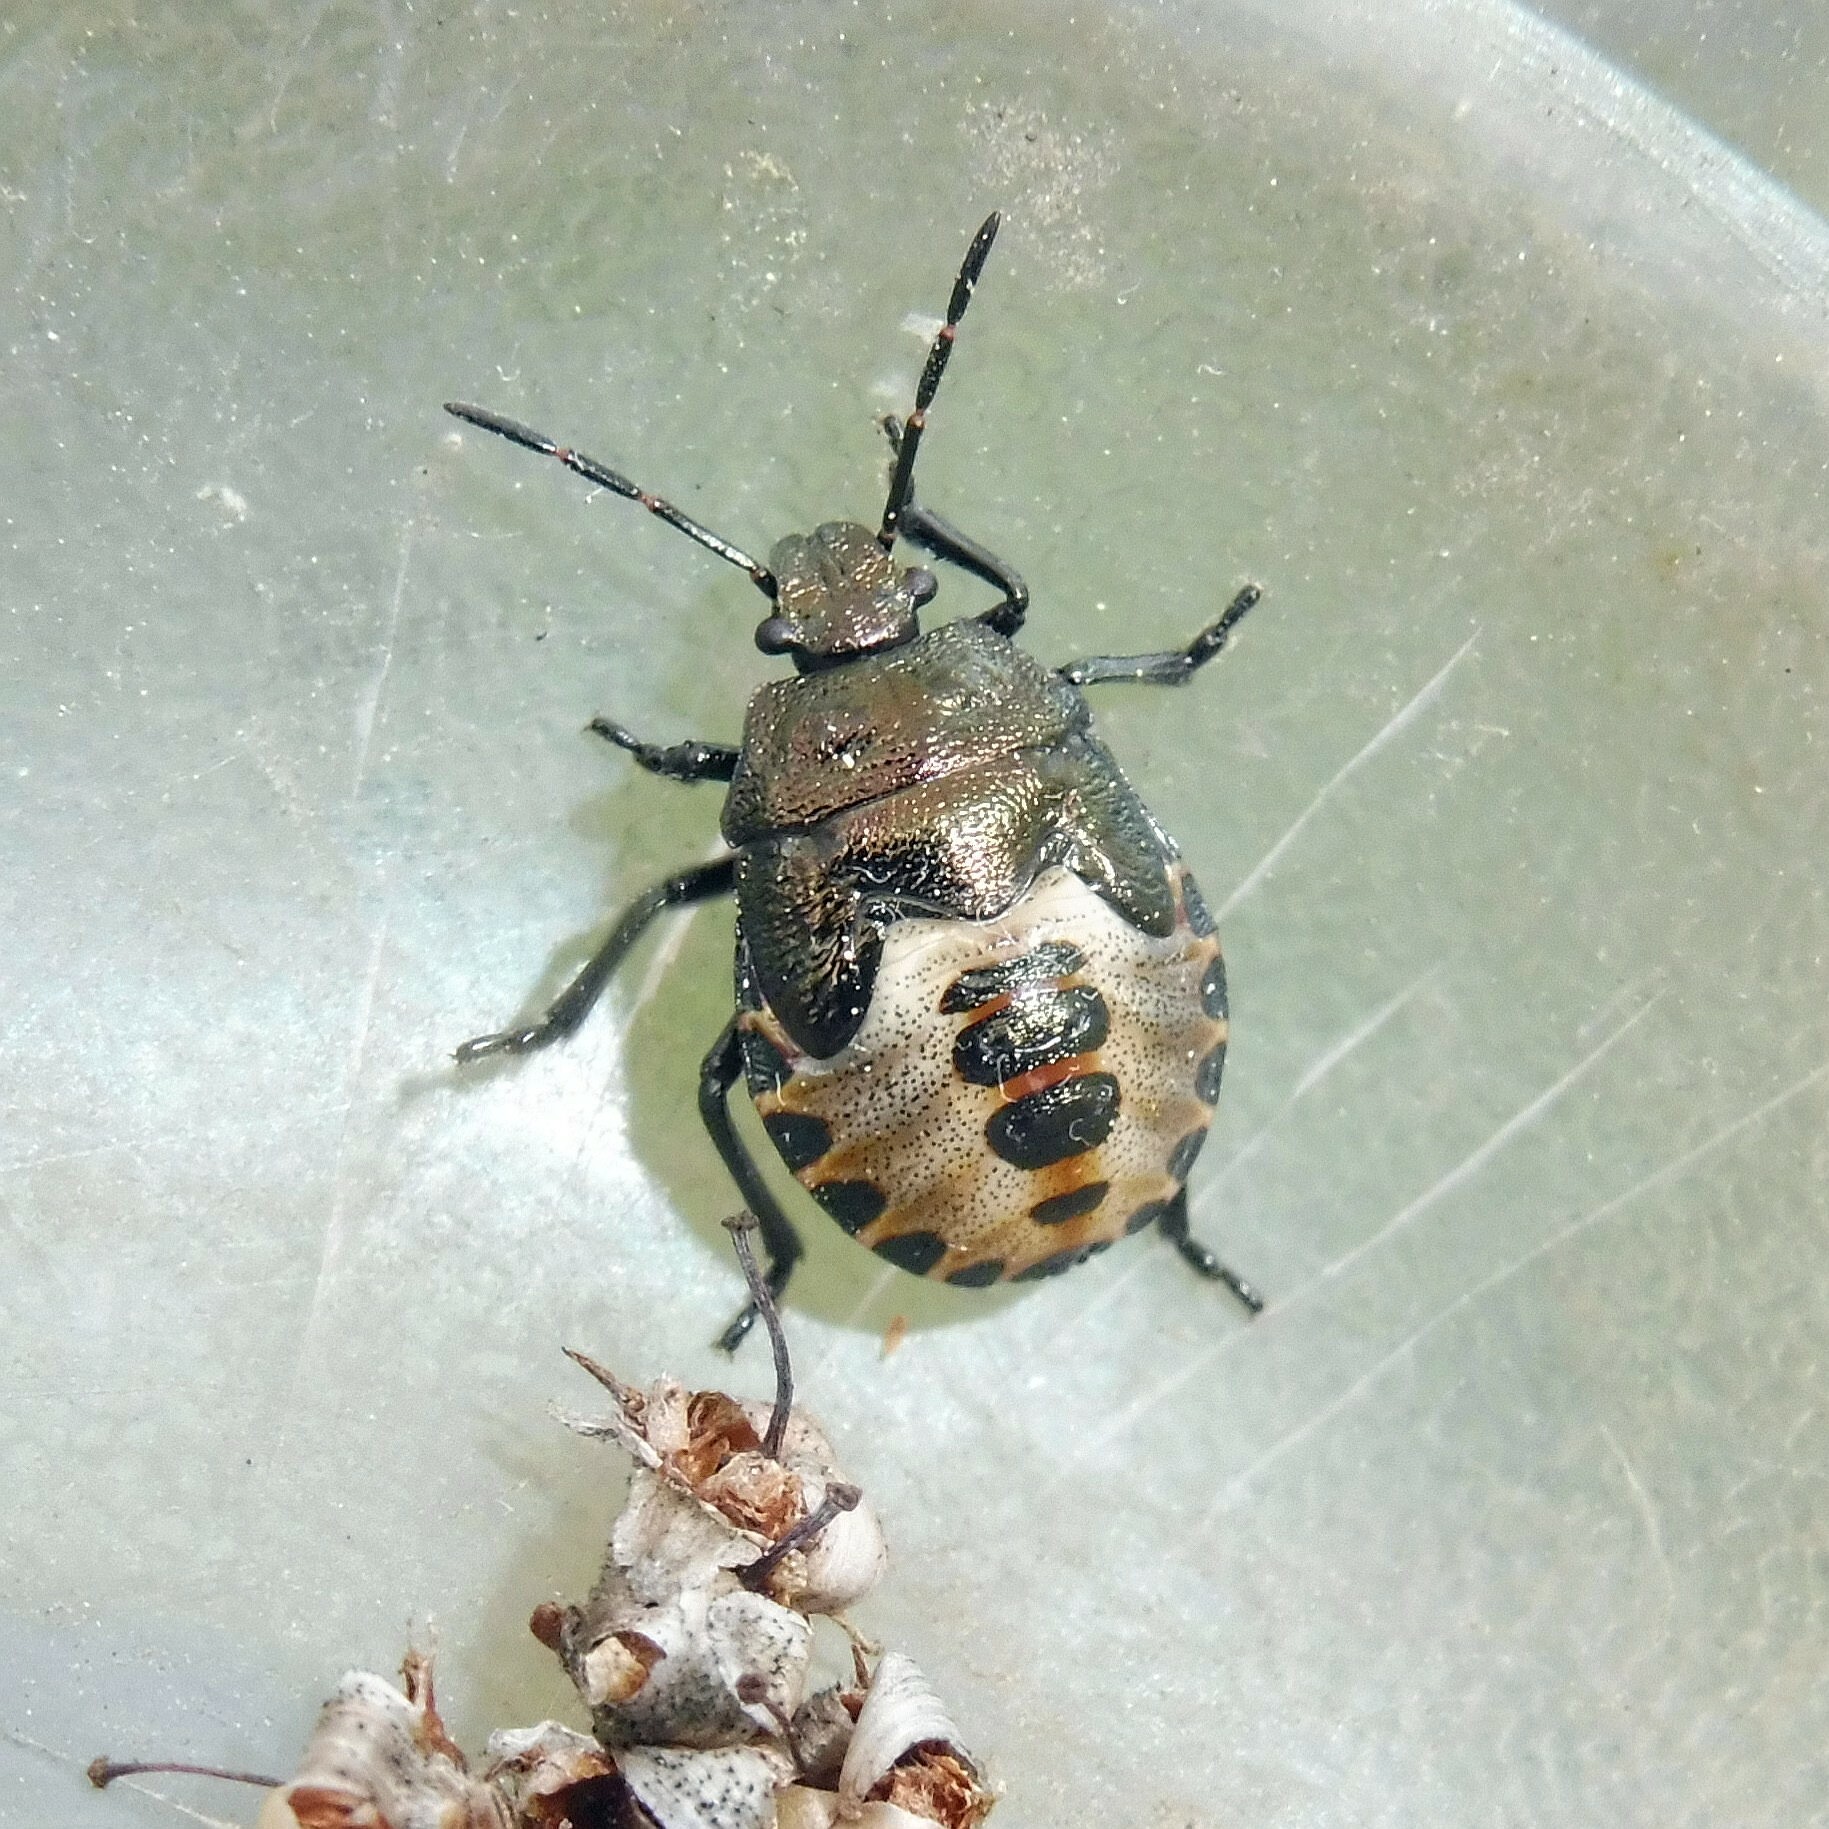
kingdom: Animalia
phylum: Arthropoda
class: Insecta
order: Hemiptera
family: Pentatomidae
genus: Rhacognathus
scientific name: Rhacognathus punctatus
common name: Heather bug
